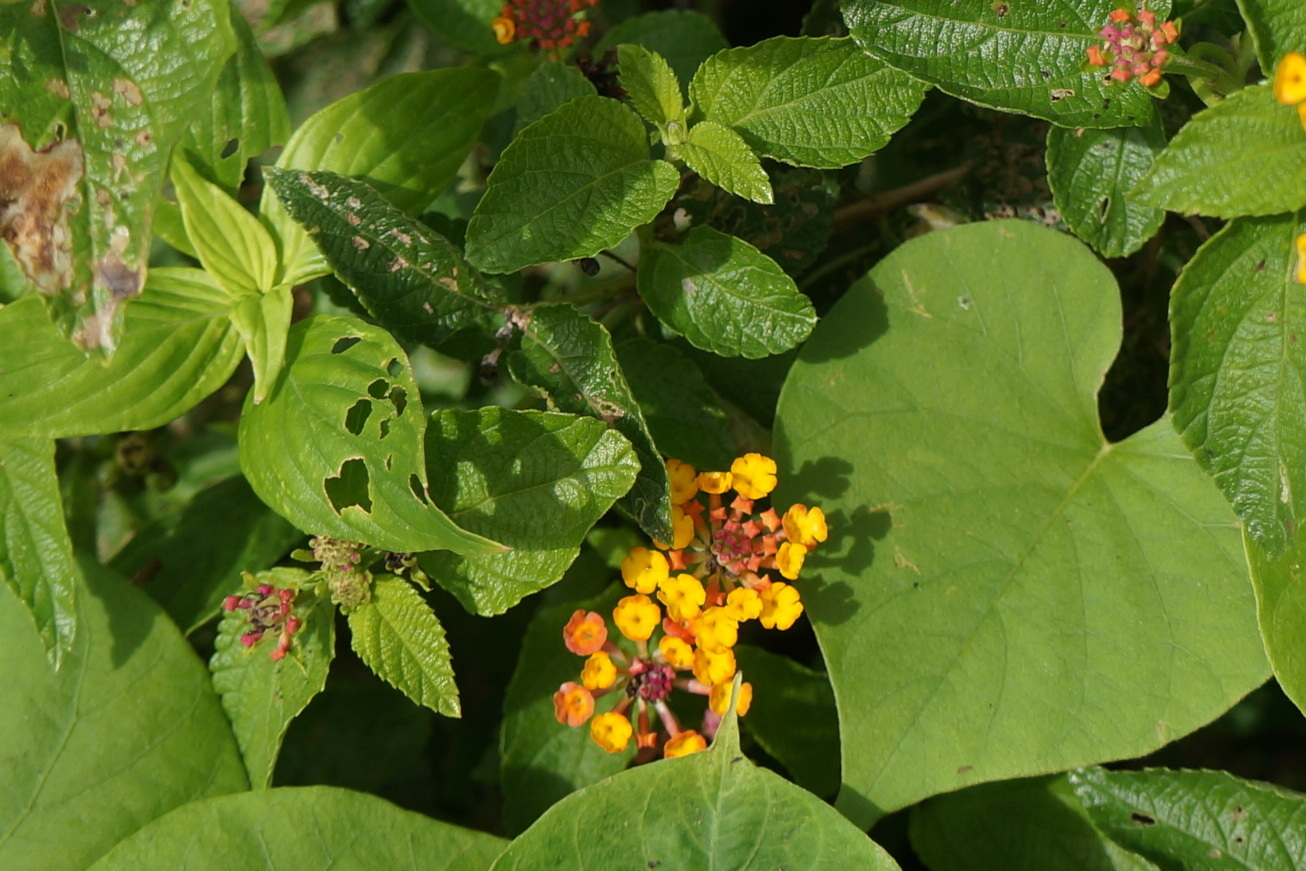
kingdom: Plantae
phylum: Tracheophyta
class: Magnoliopsida
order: Lamiales
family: Verbenaceae
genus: Lantana
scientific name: Lantana camara
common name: Lantana
